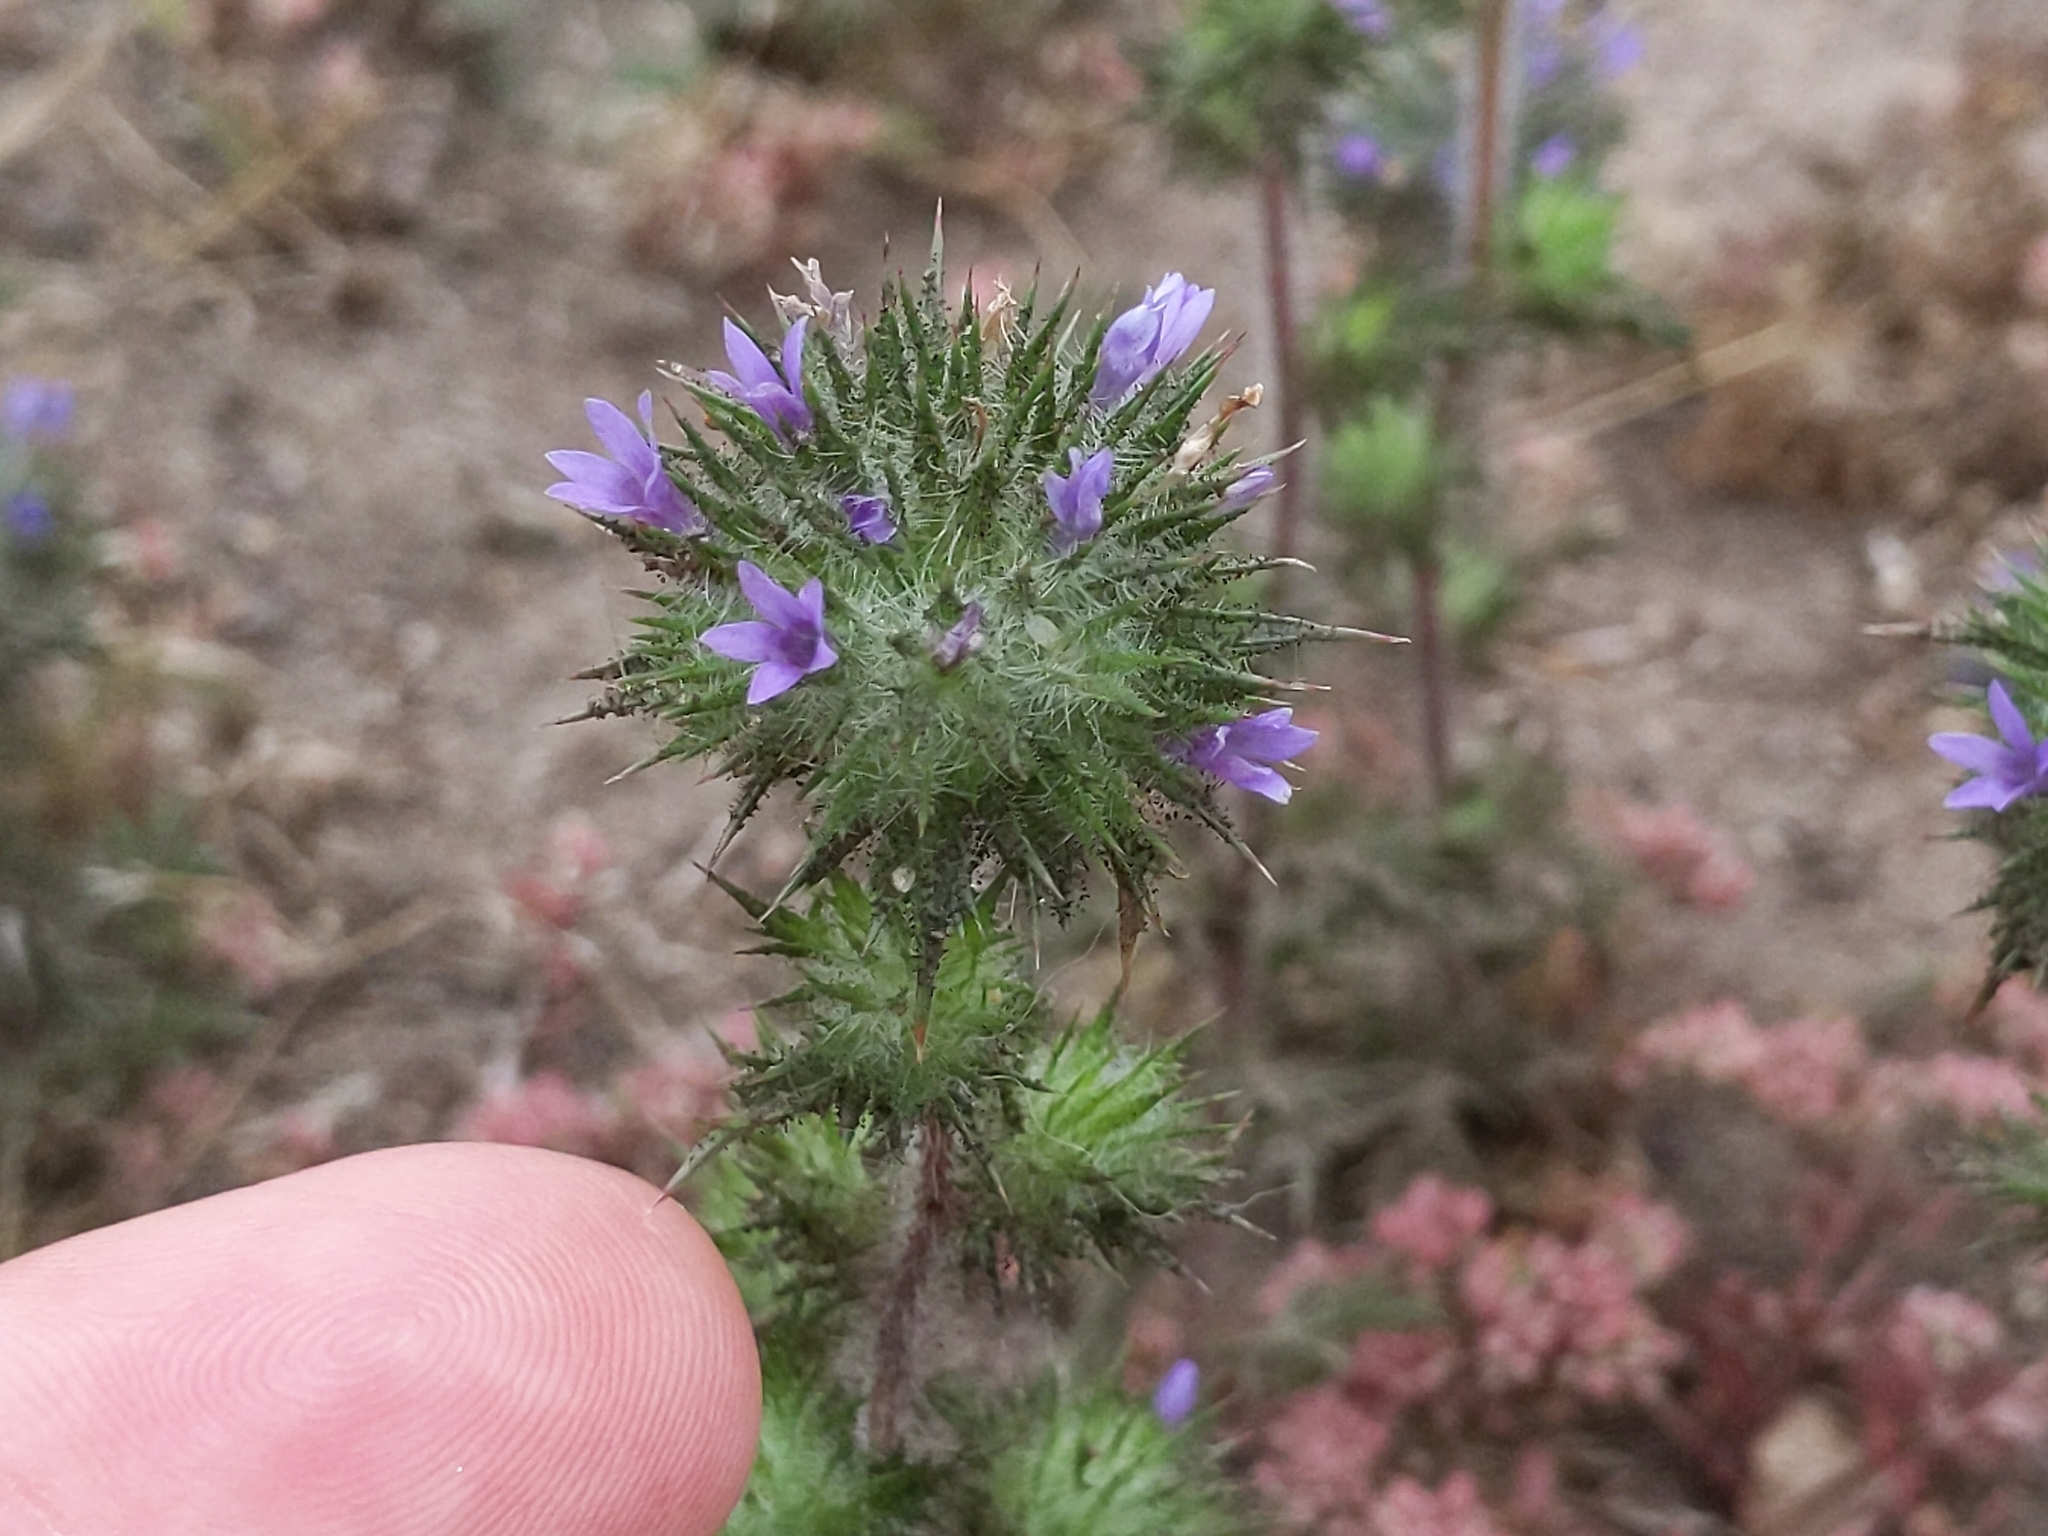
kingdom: Plantae
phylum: Tracheophyta
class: Magnoliopsida
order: Ericales
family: Polemoniaceae
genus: Navarretia
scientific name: Navarretia squarrosa
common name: Skunkweed
